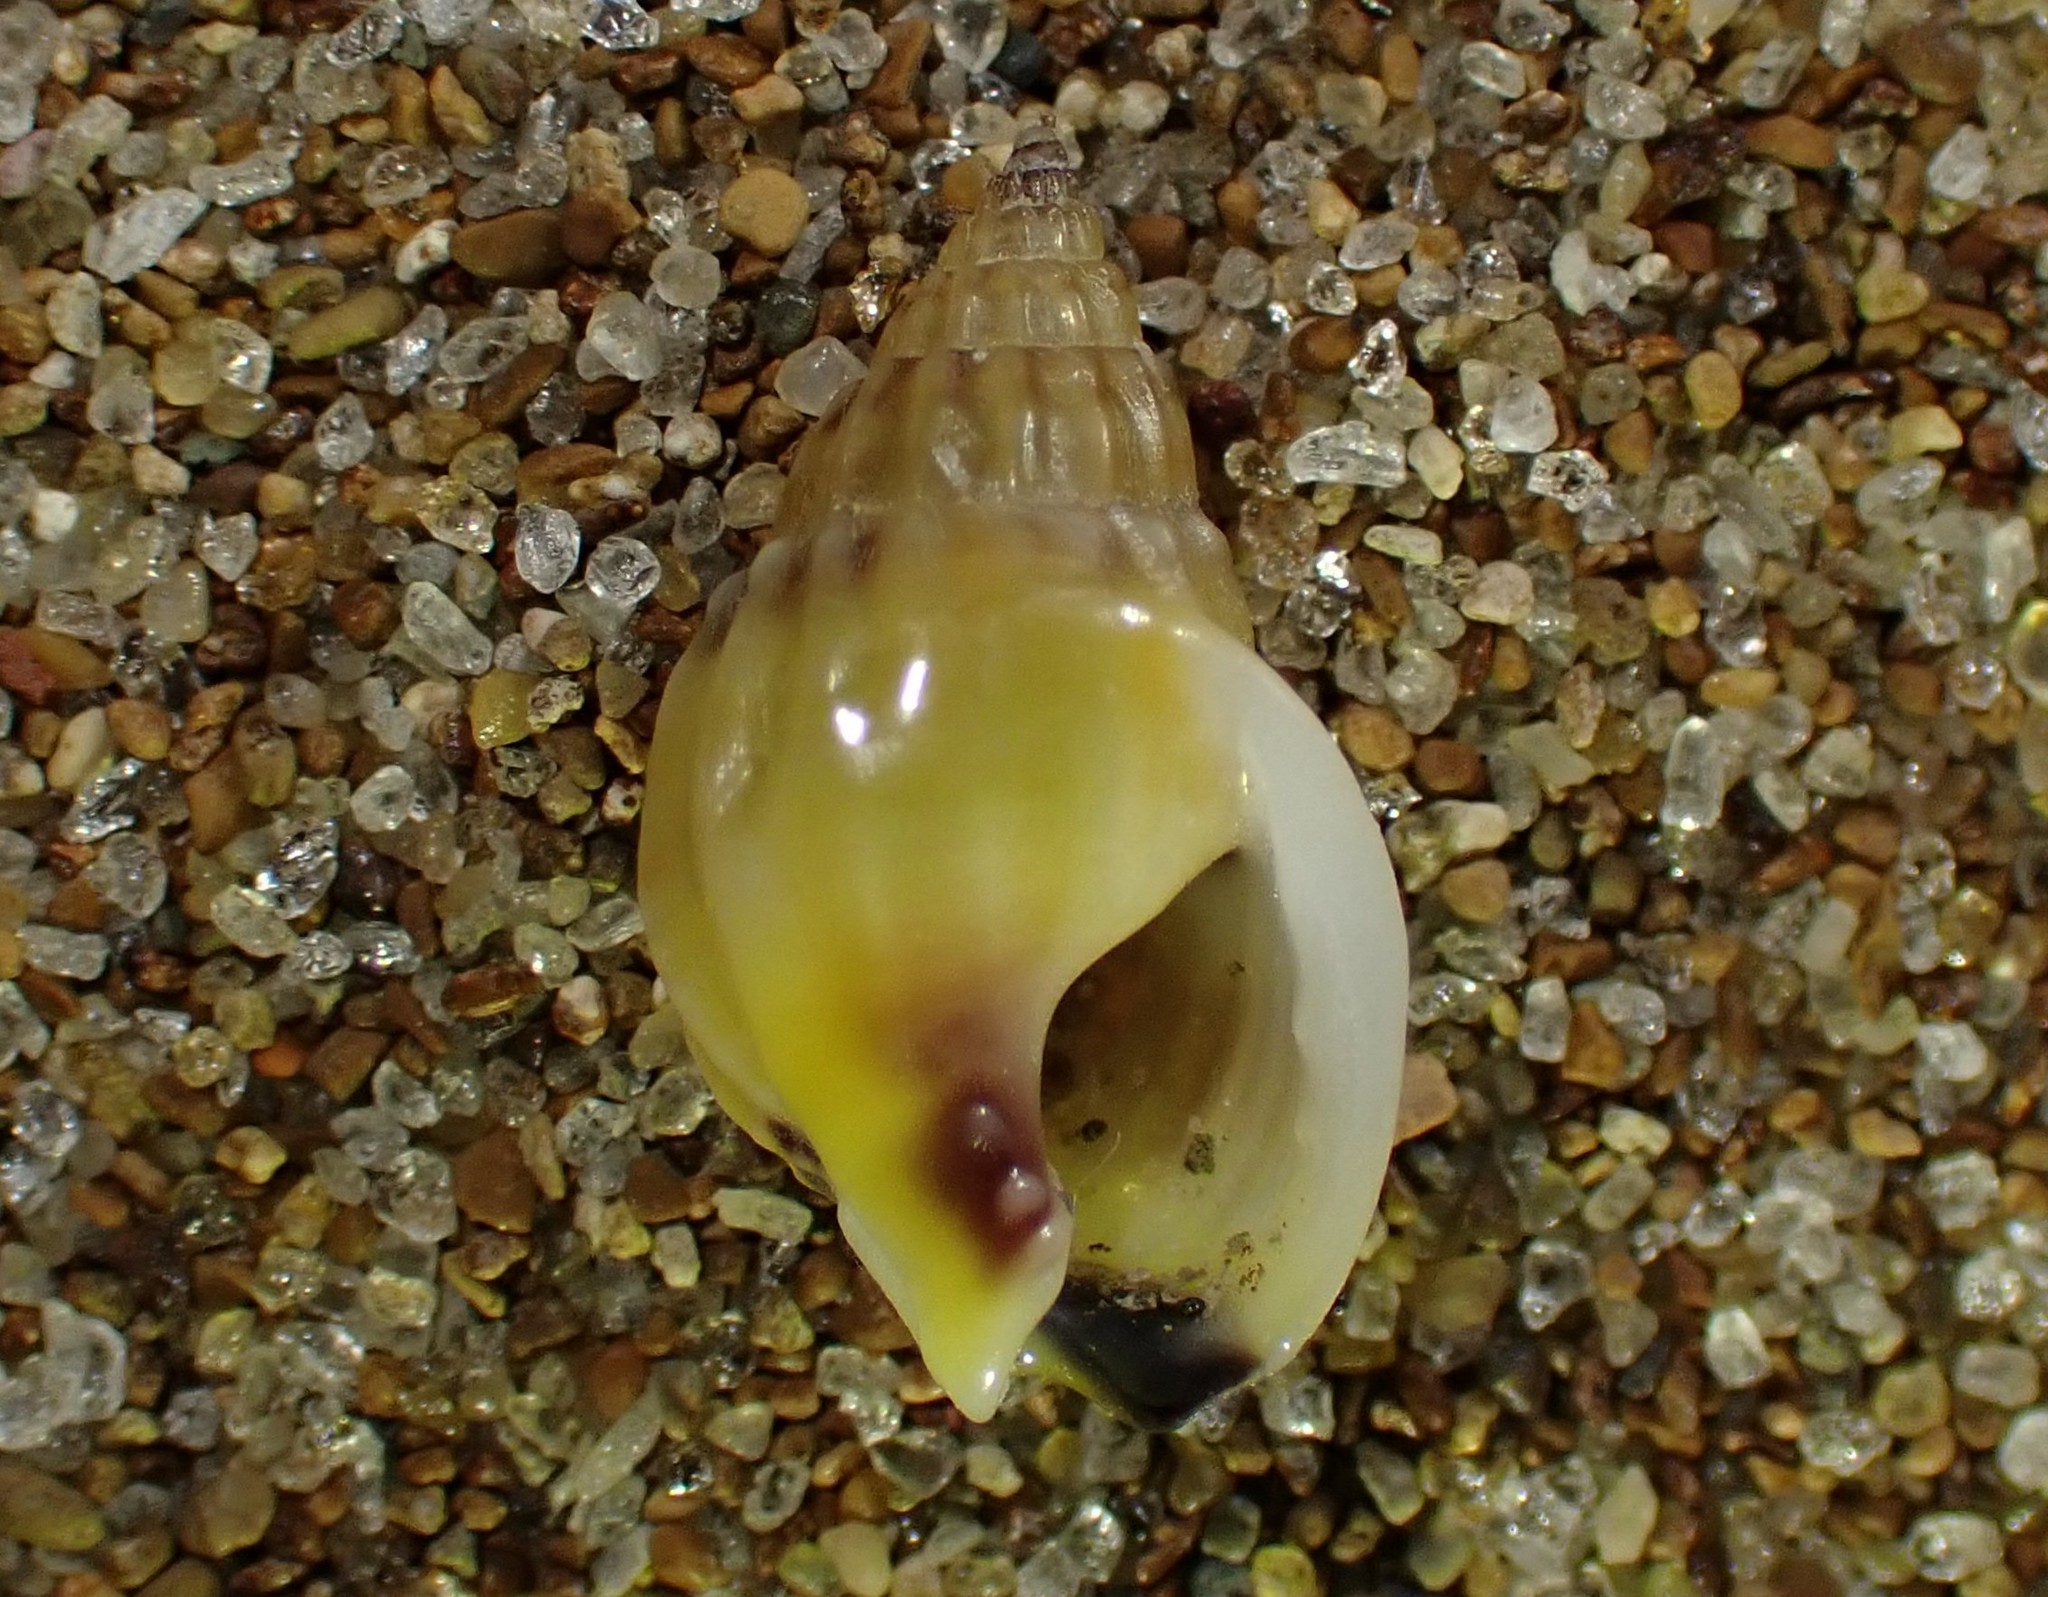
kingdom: Animalia
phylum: Mollusca
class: Gastropoda
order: Neogastropoda
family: Nassariidae
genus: Tritia
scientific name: Tritia burchardi
